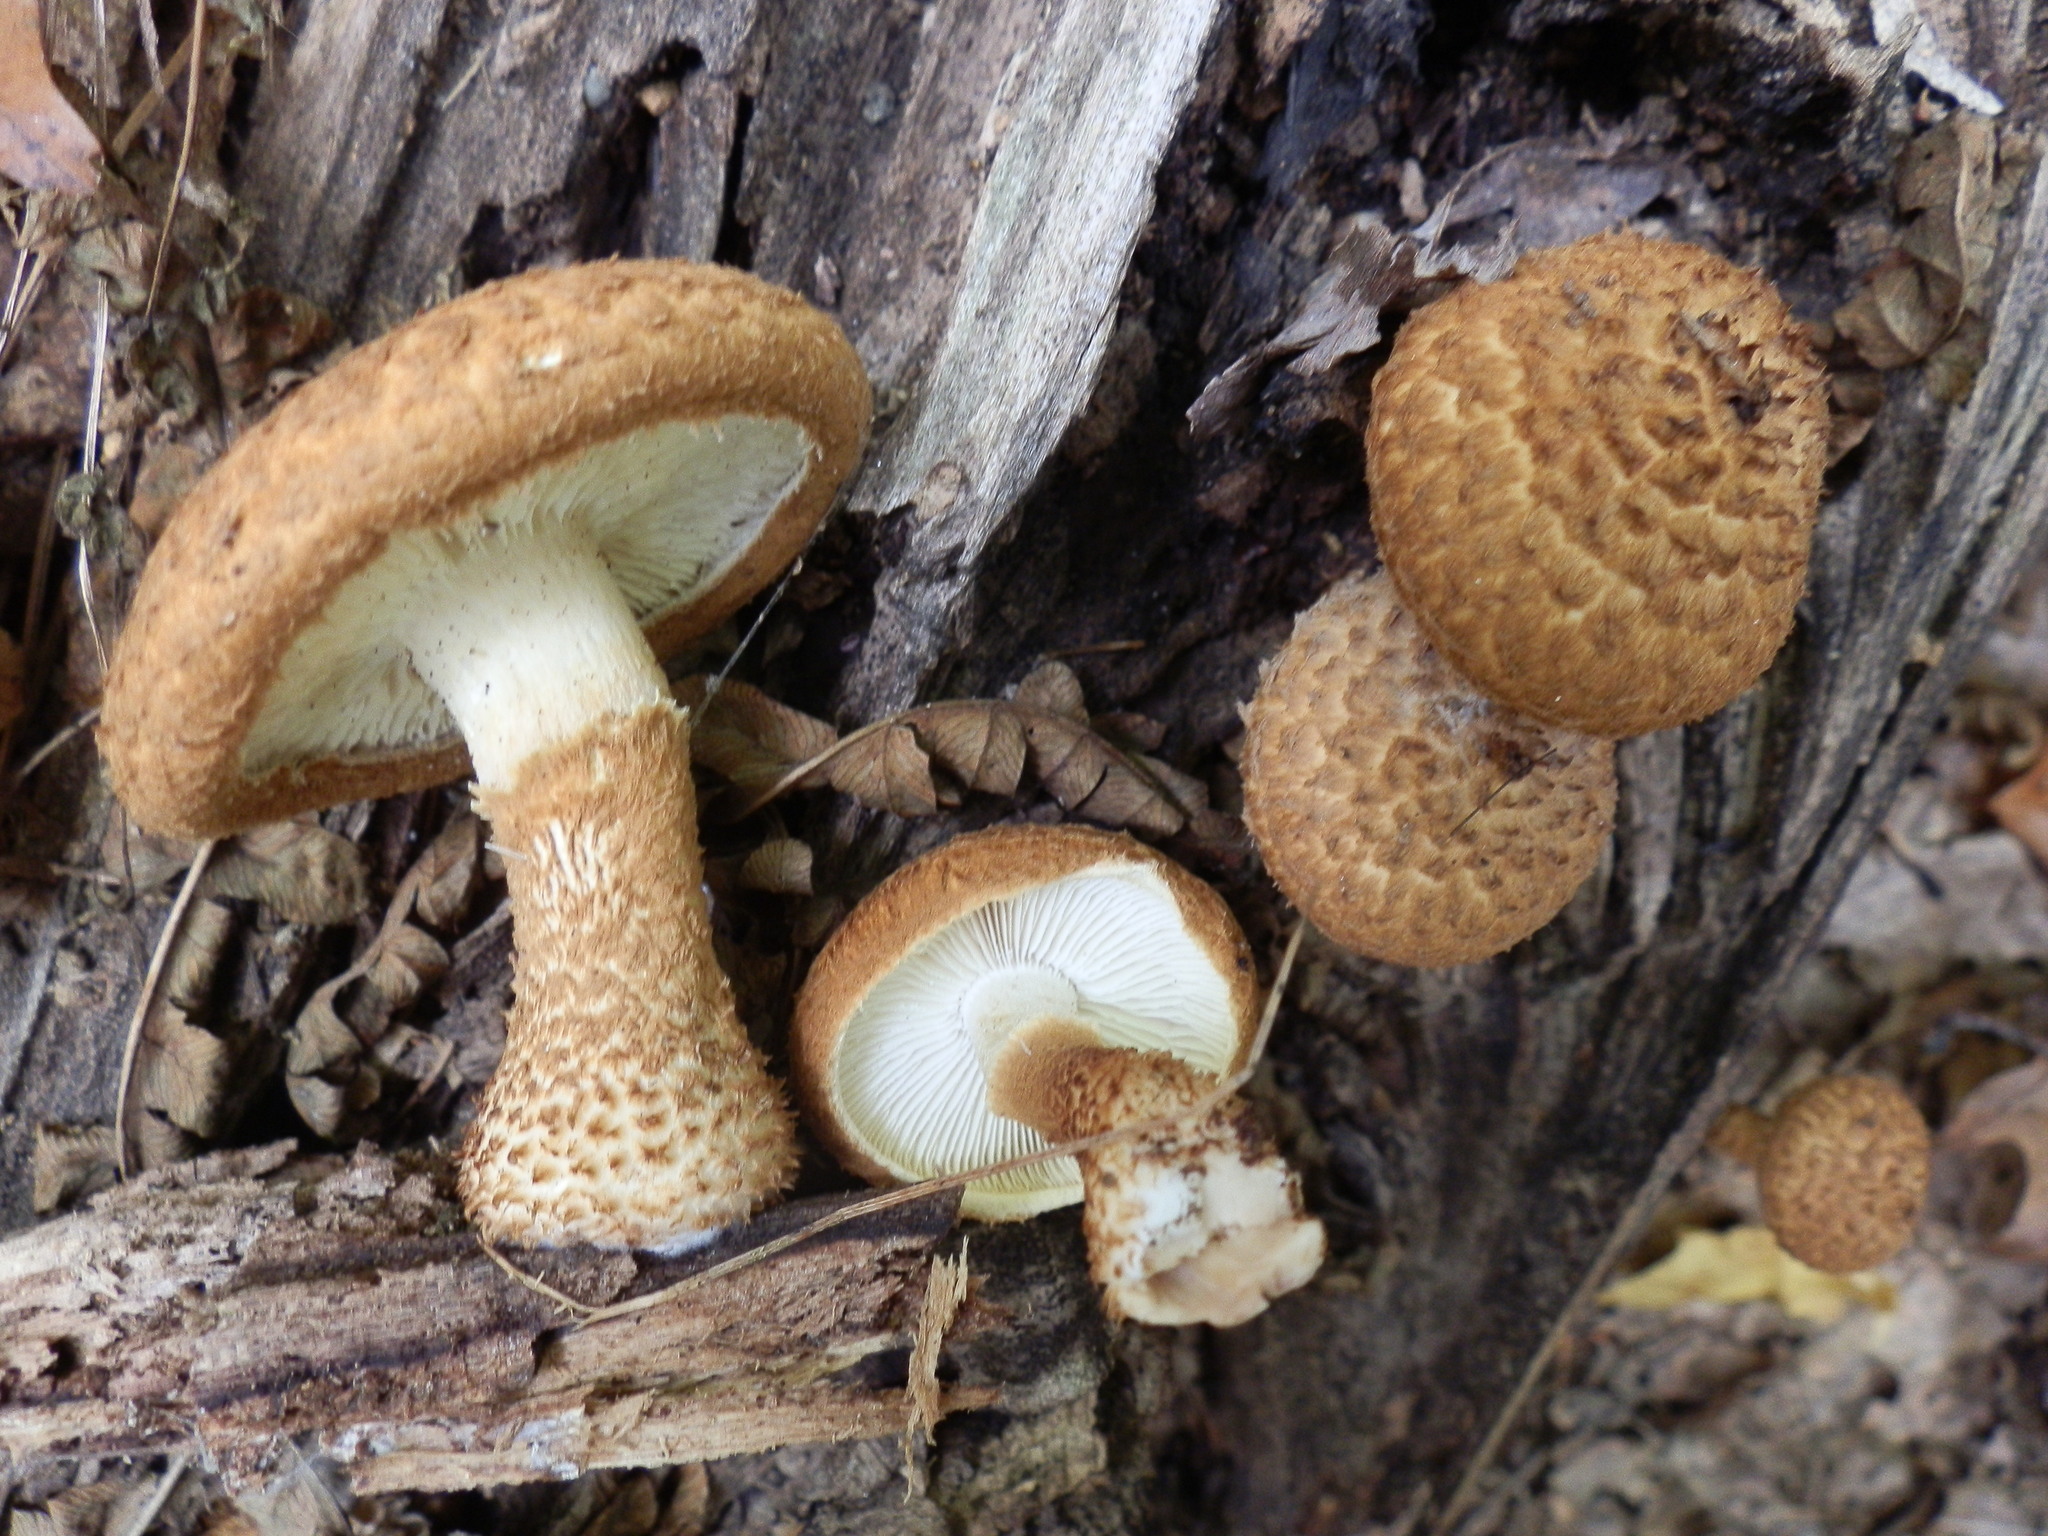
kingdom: Fungi
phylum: Basidiomycota
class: Agaricomycetes
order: Agaricales
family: Agaricaceae
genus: Leucopholiota
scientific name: Leucopholiota decorosa
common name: Decorated pholiota
